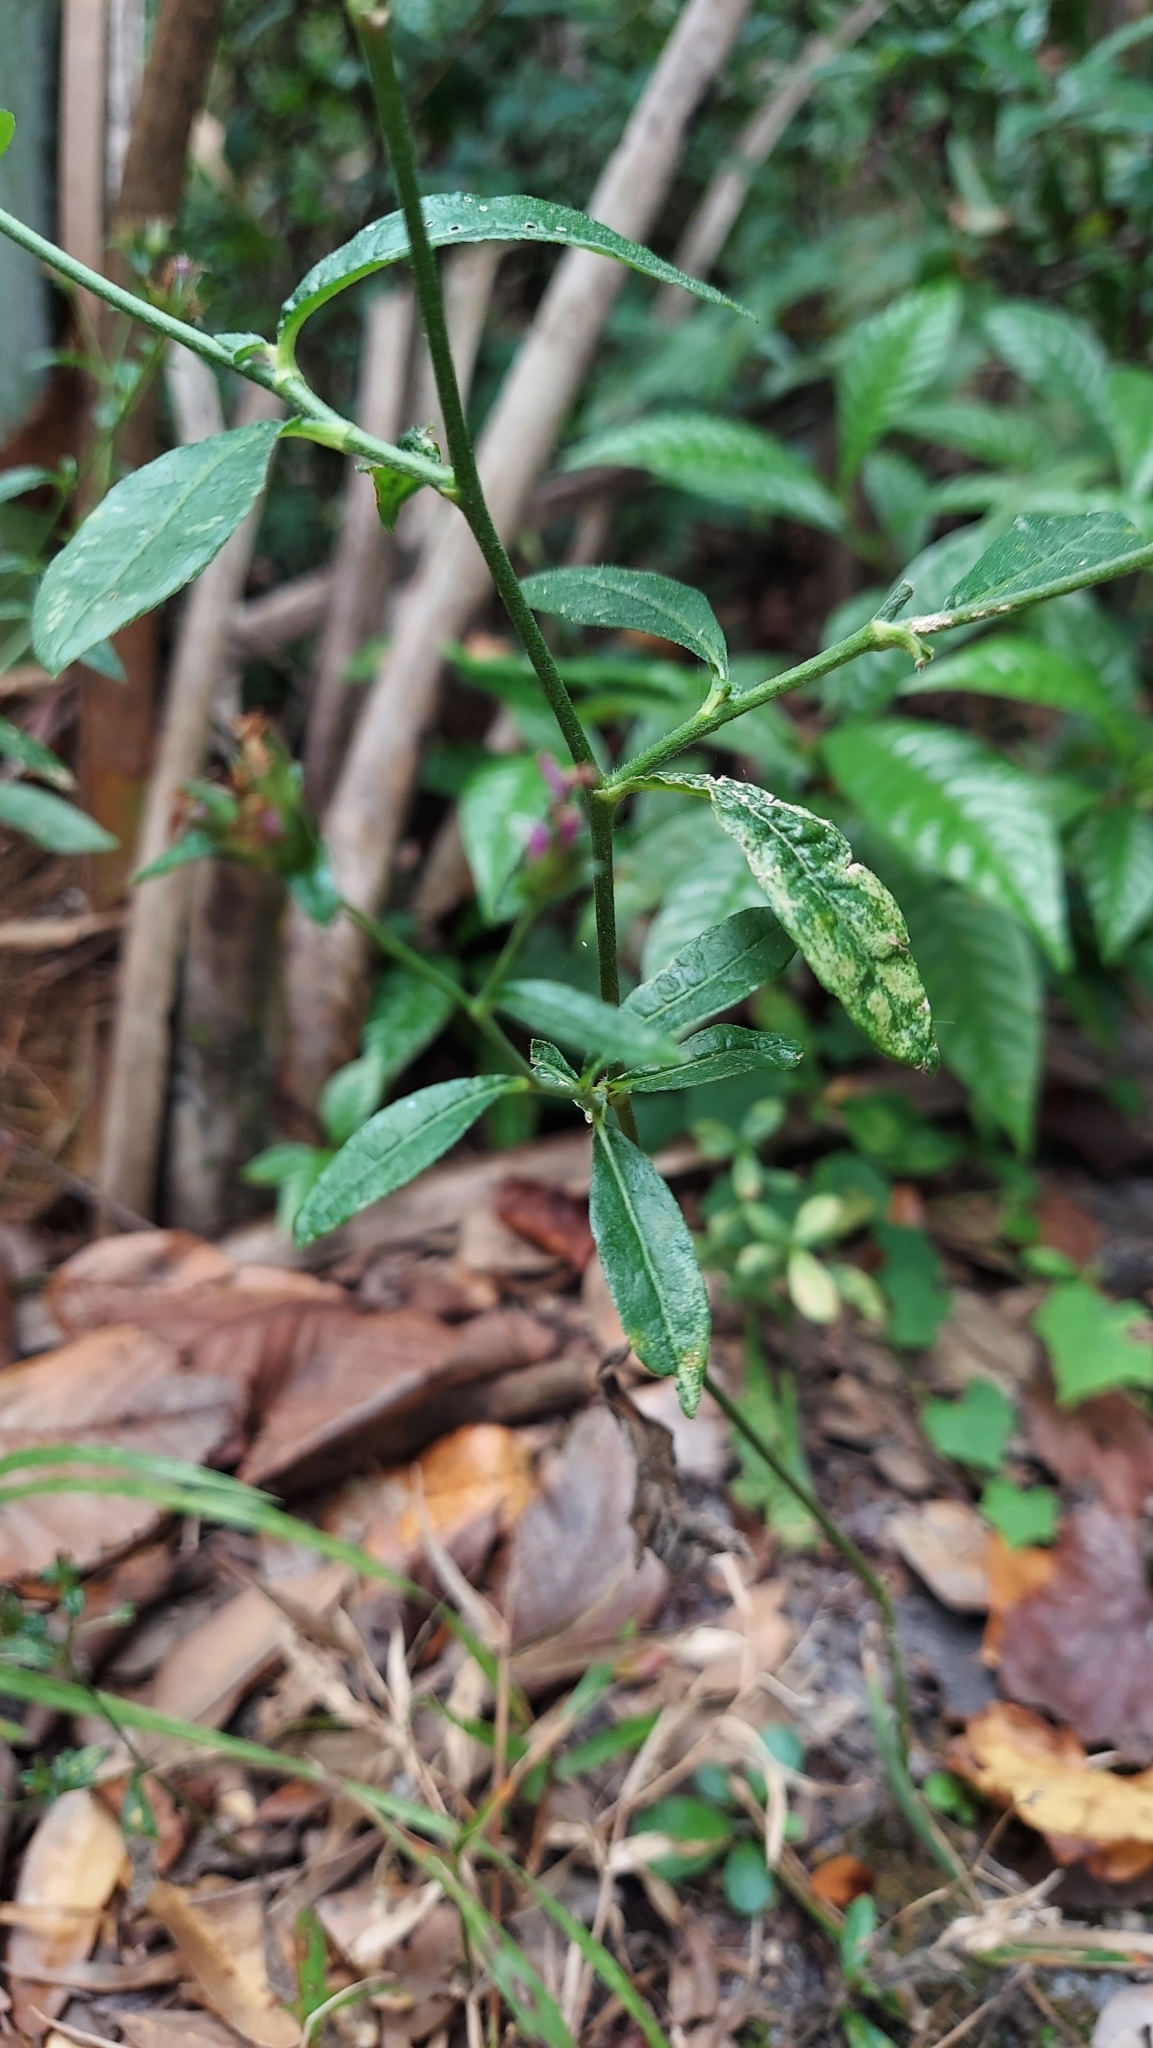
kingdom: Plantae
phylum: Tracheophyta
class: Magnoliopsida
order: Asterales
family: Asteraceae
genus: Elephantopus
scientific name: Elephantopus carolinianus
